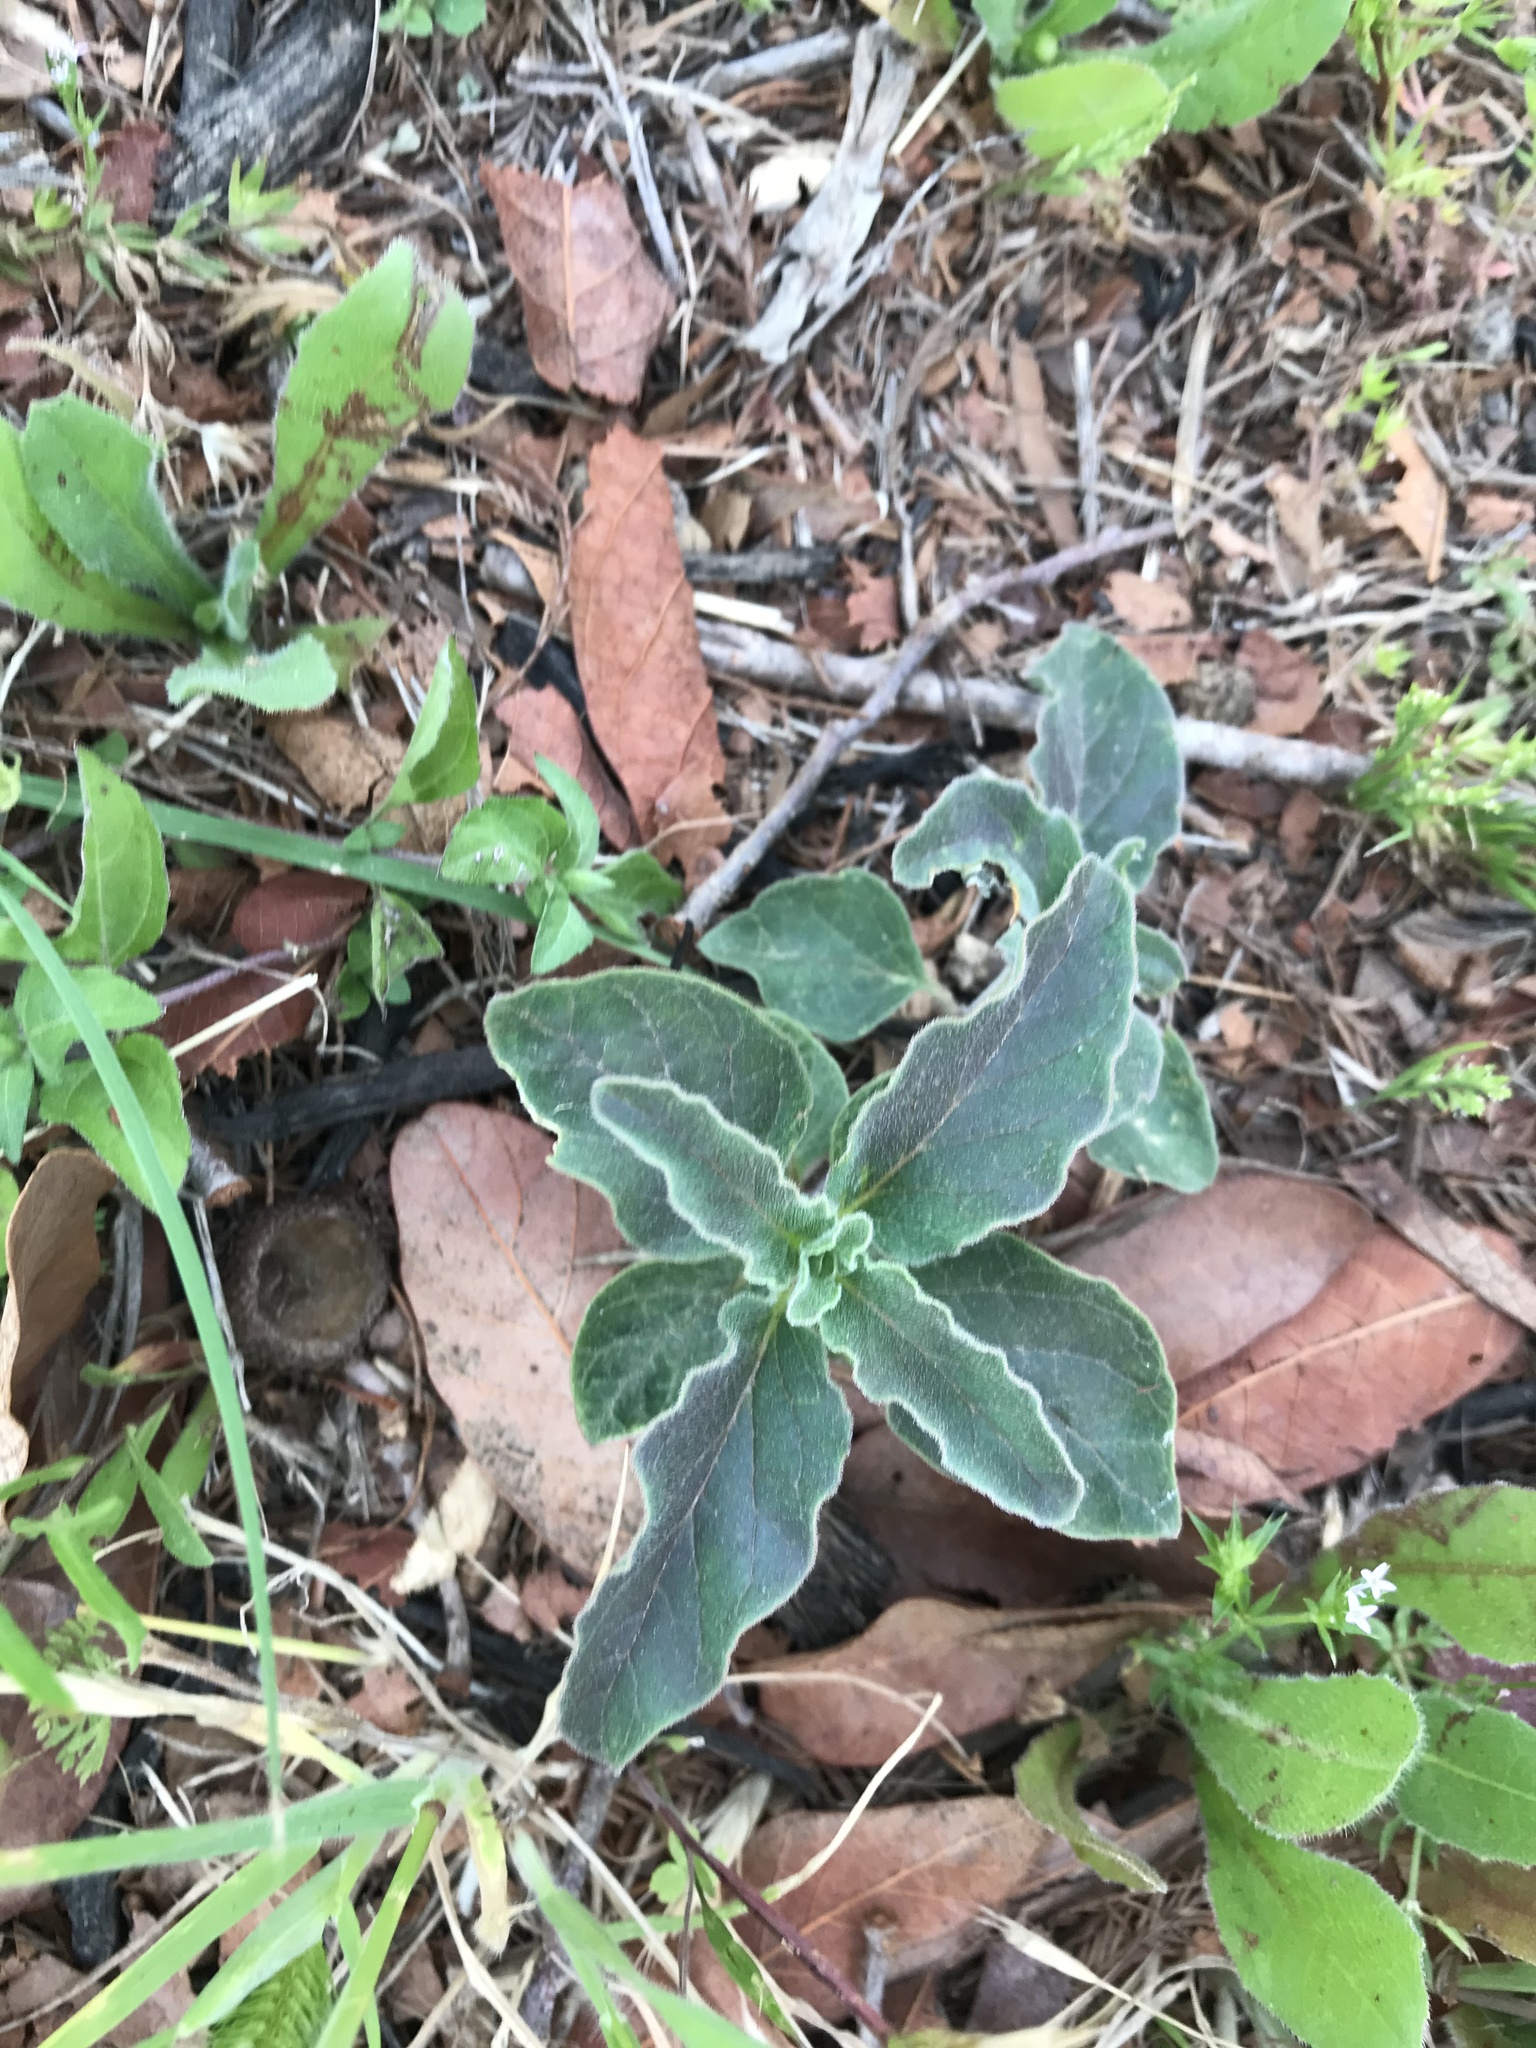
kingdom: Plantae
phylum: Tracheophyta
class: Magnoliopsida
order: Gentianales
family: Apocynaceae
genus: Asclepias
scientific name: Asclepias oenotheroides
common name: Zizotes milkweed
